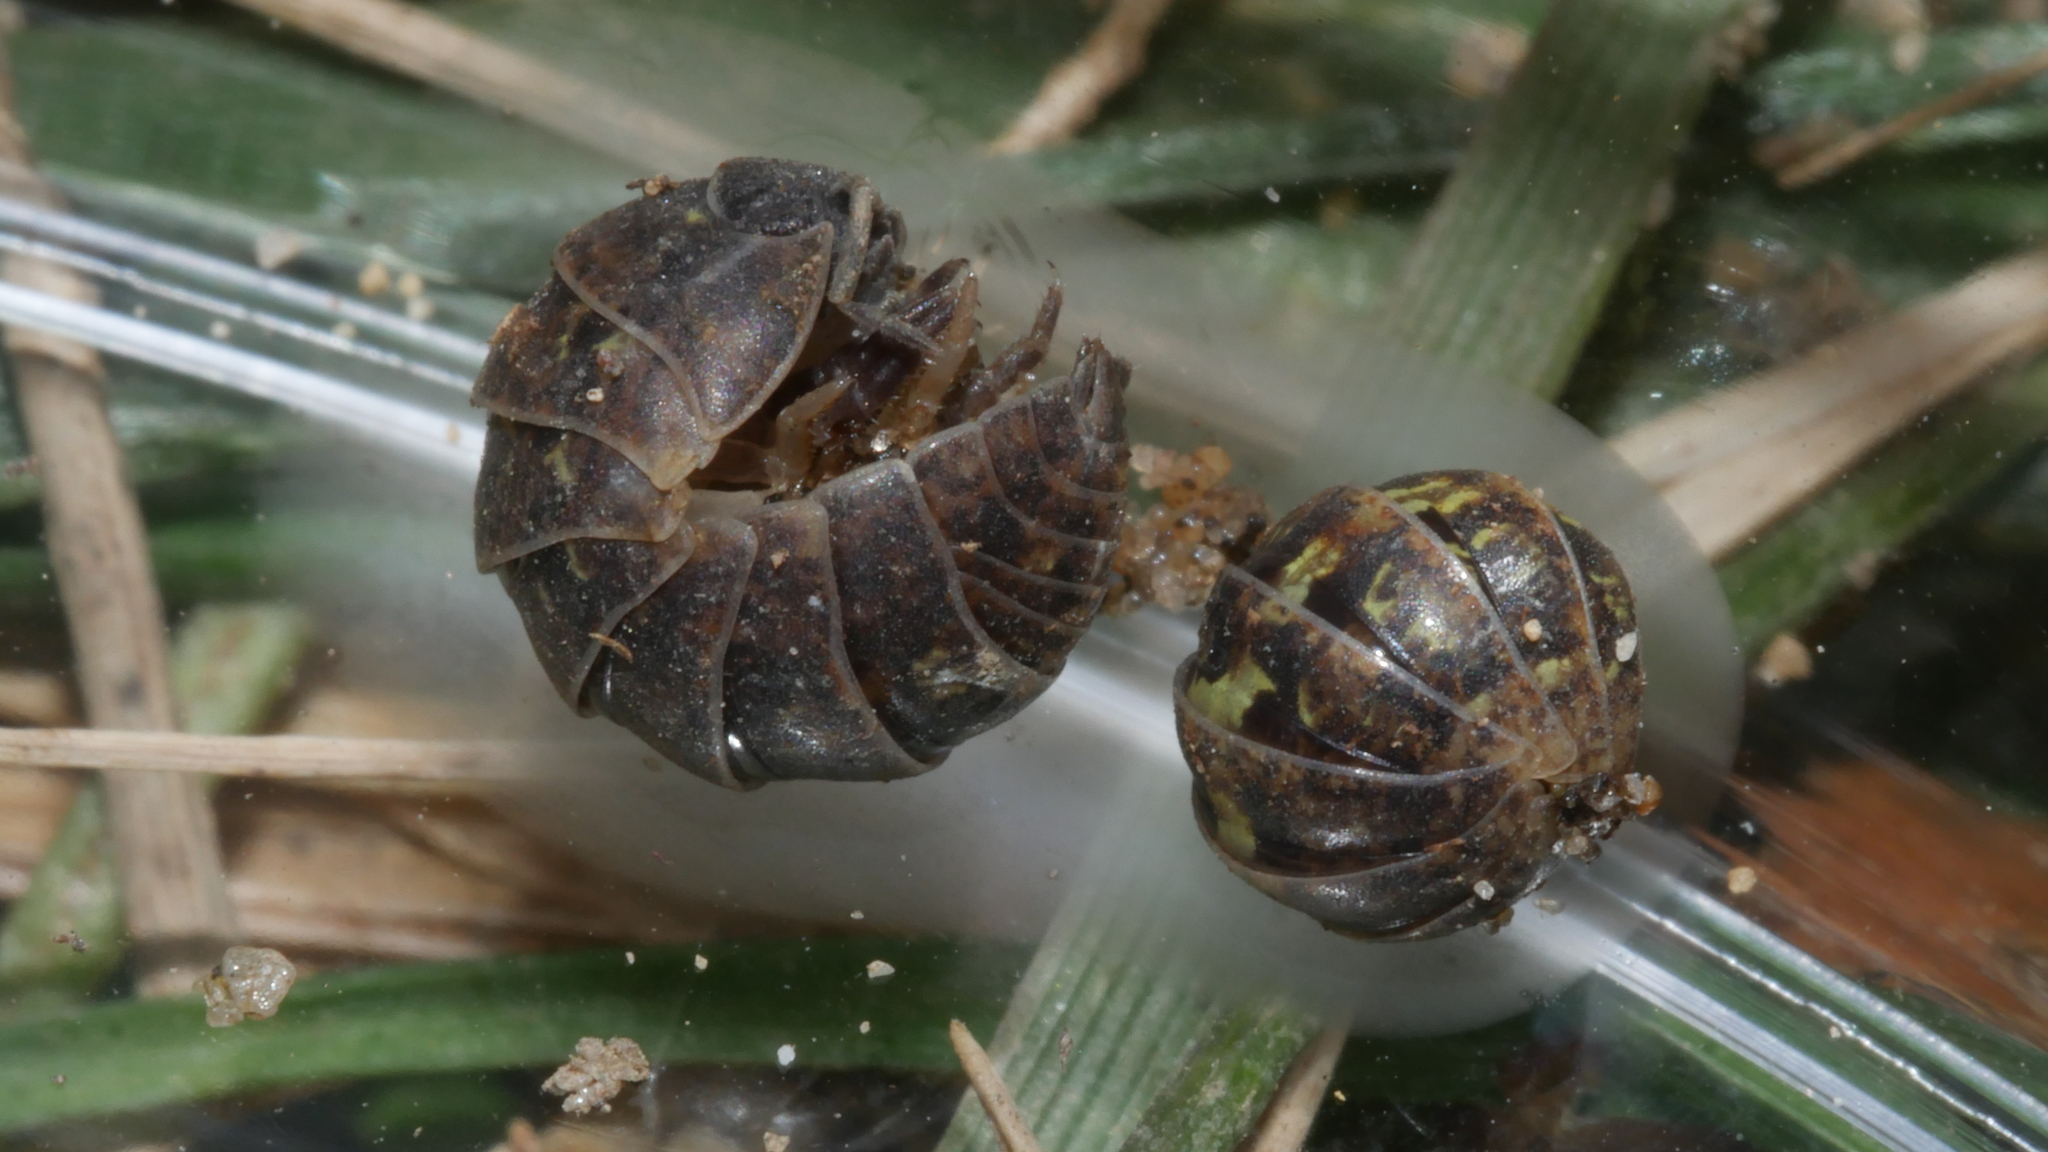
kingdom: Animalia
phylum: Arthropoda
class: Malacostraca
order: Isopoda
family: Armadillidiidae
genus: Armadillidium
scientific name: Armadillidium vulgare
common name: Common pill woodlouse
